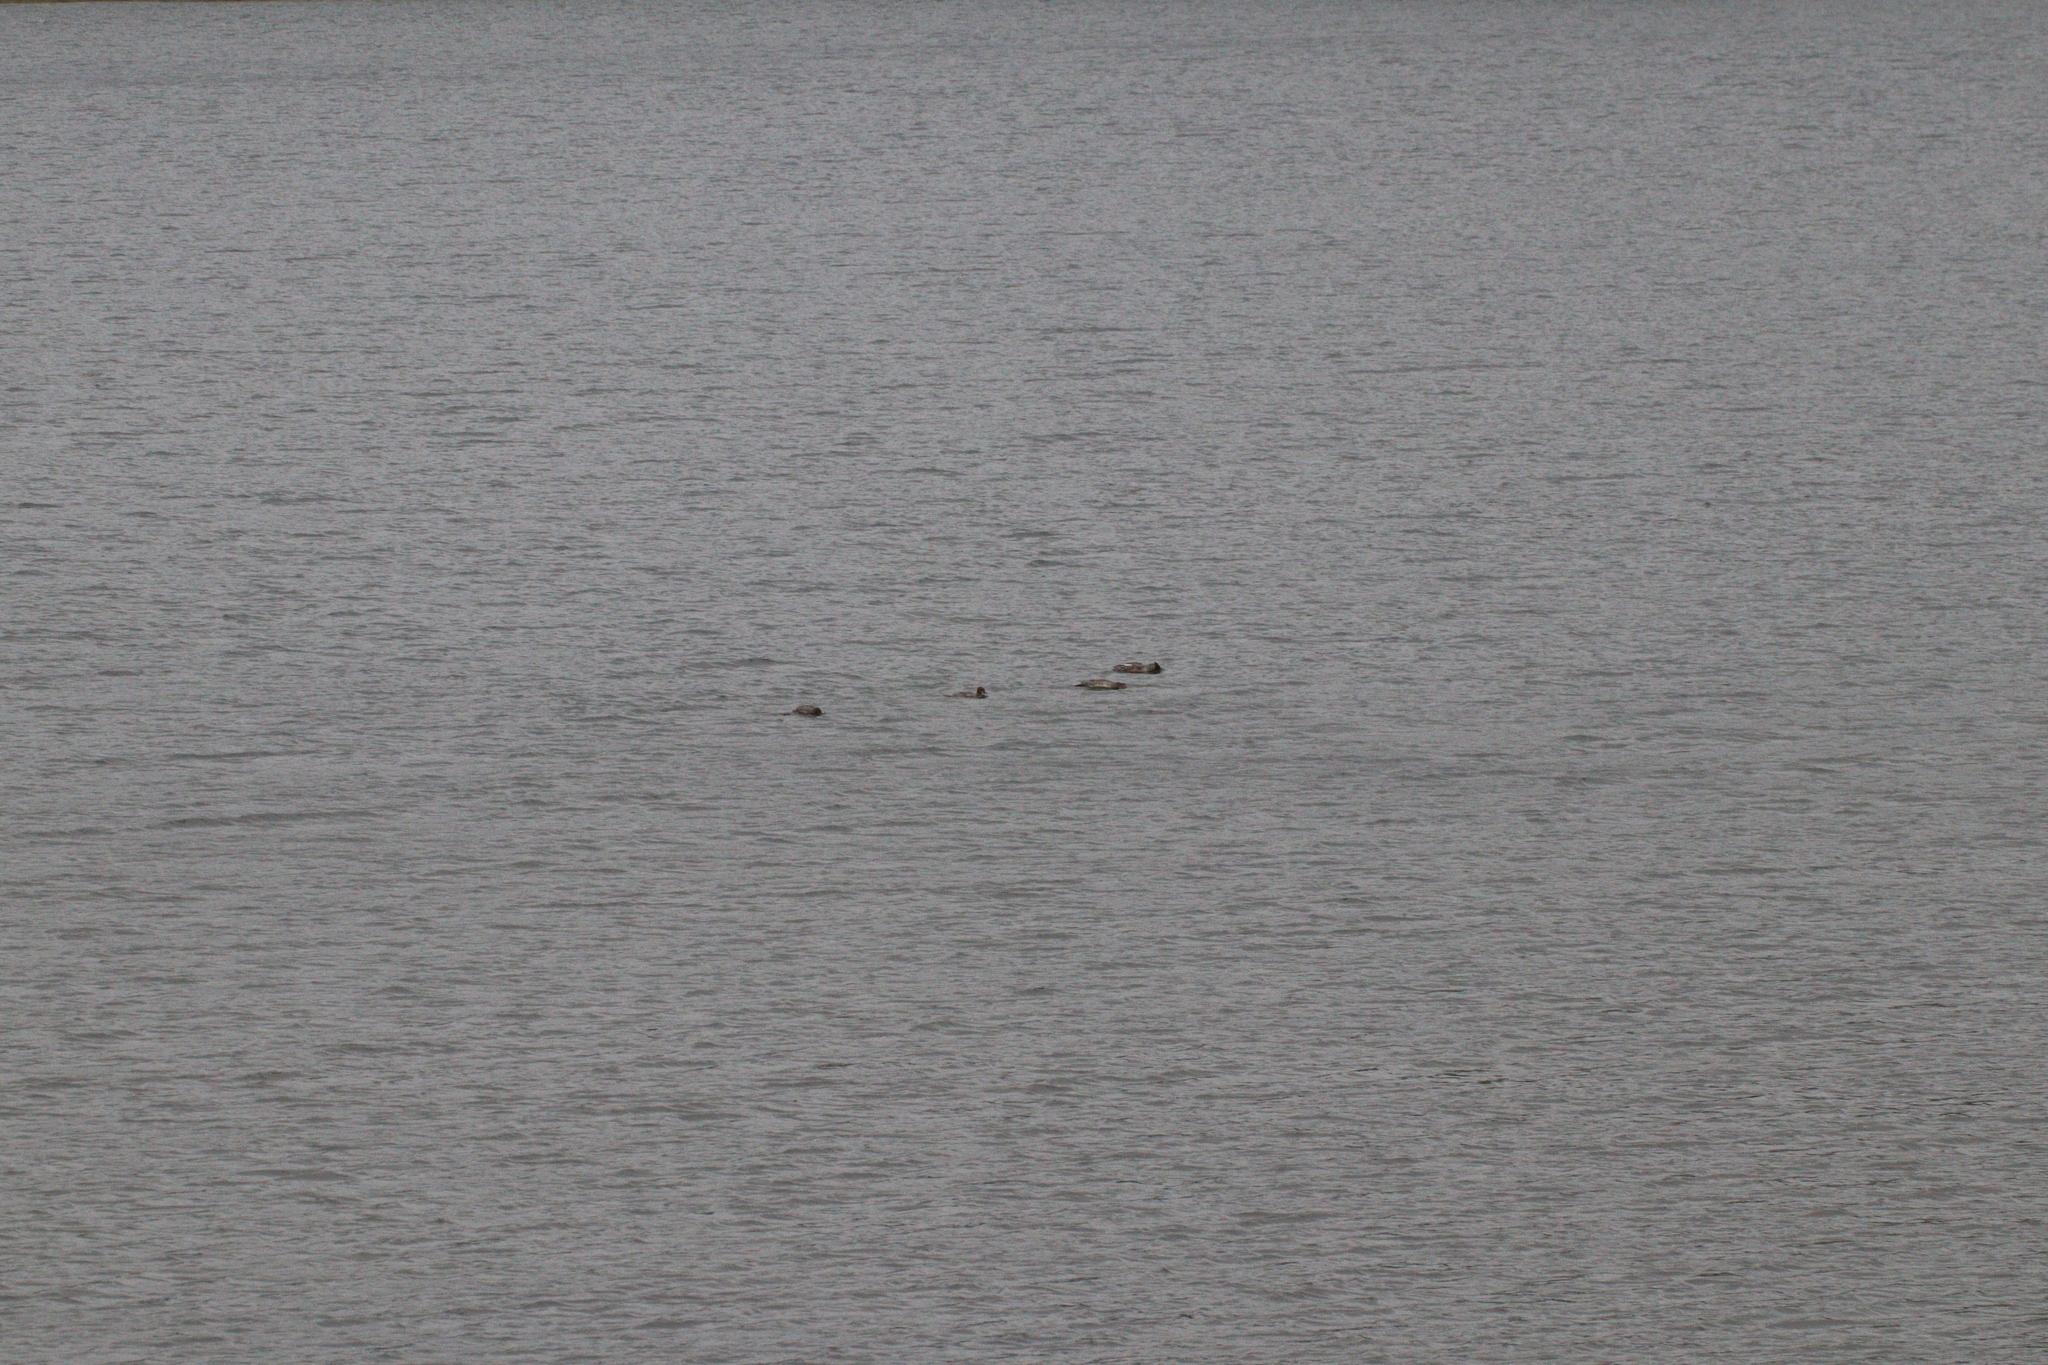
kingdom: Animalia
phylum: Chordata
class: Aves
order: Anseriformes
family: Anatidae
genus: Mergus
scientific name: Mergus merganser
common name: Common merganser
